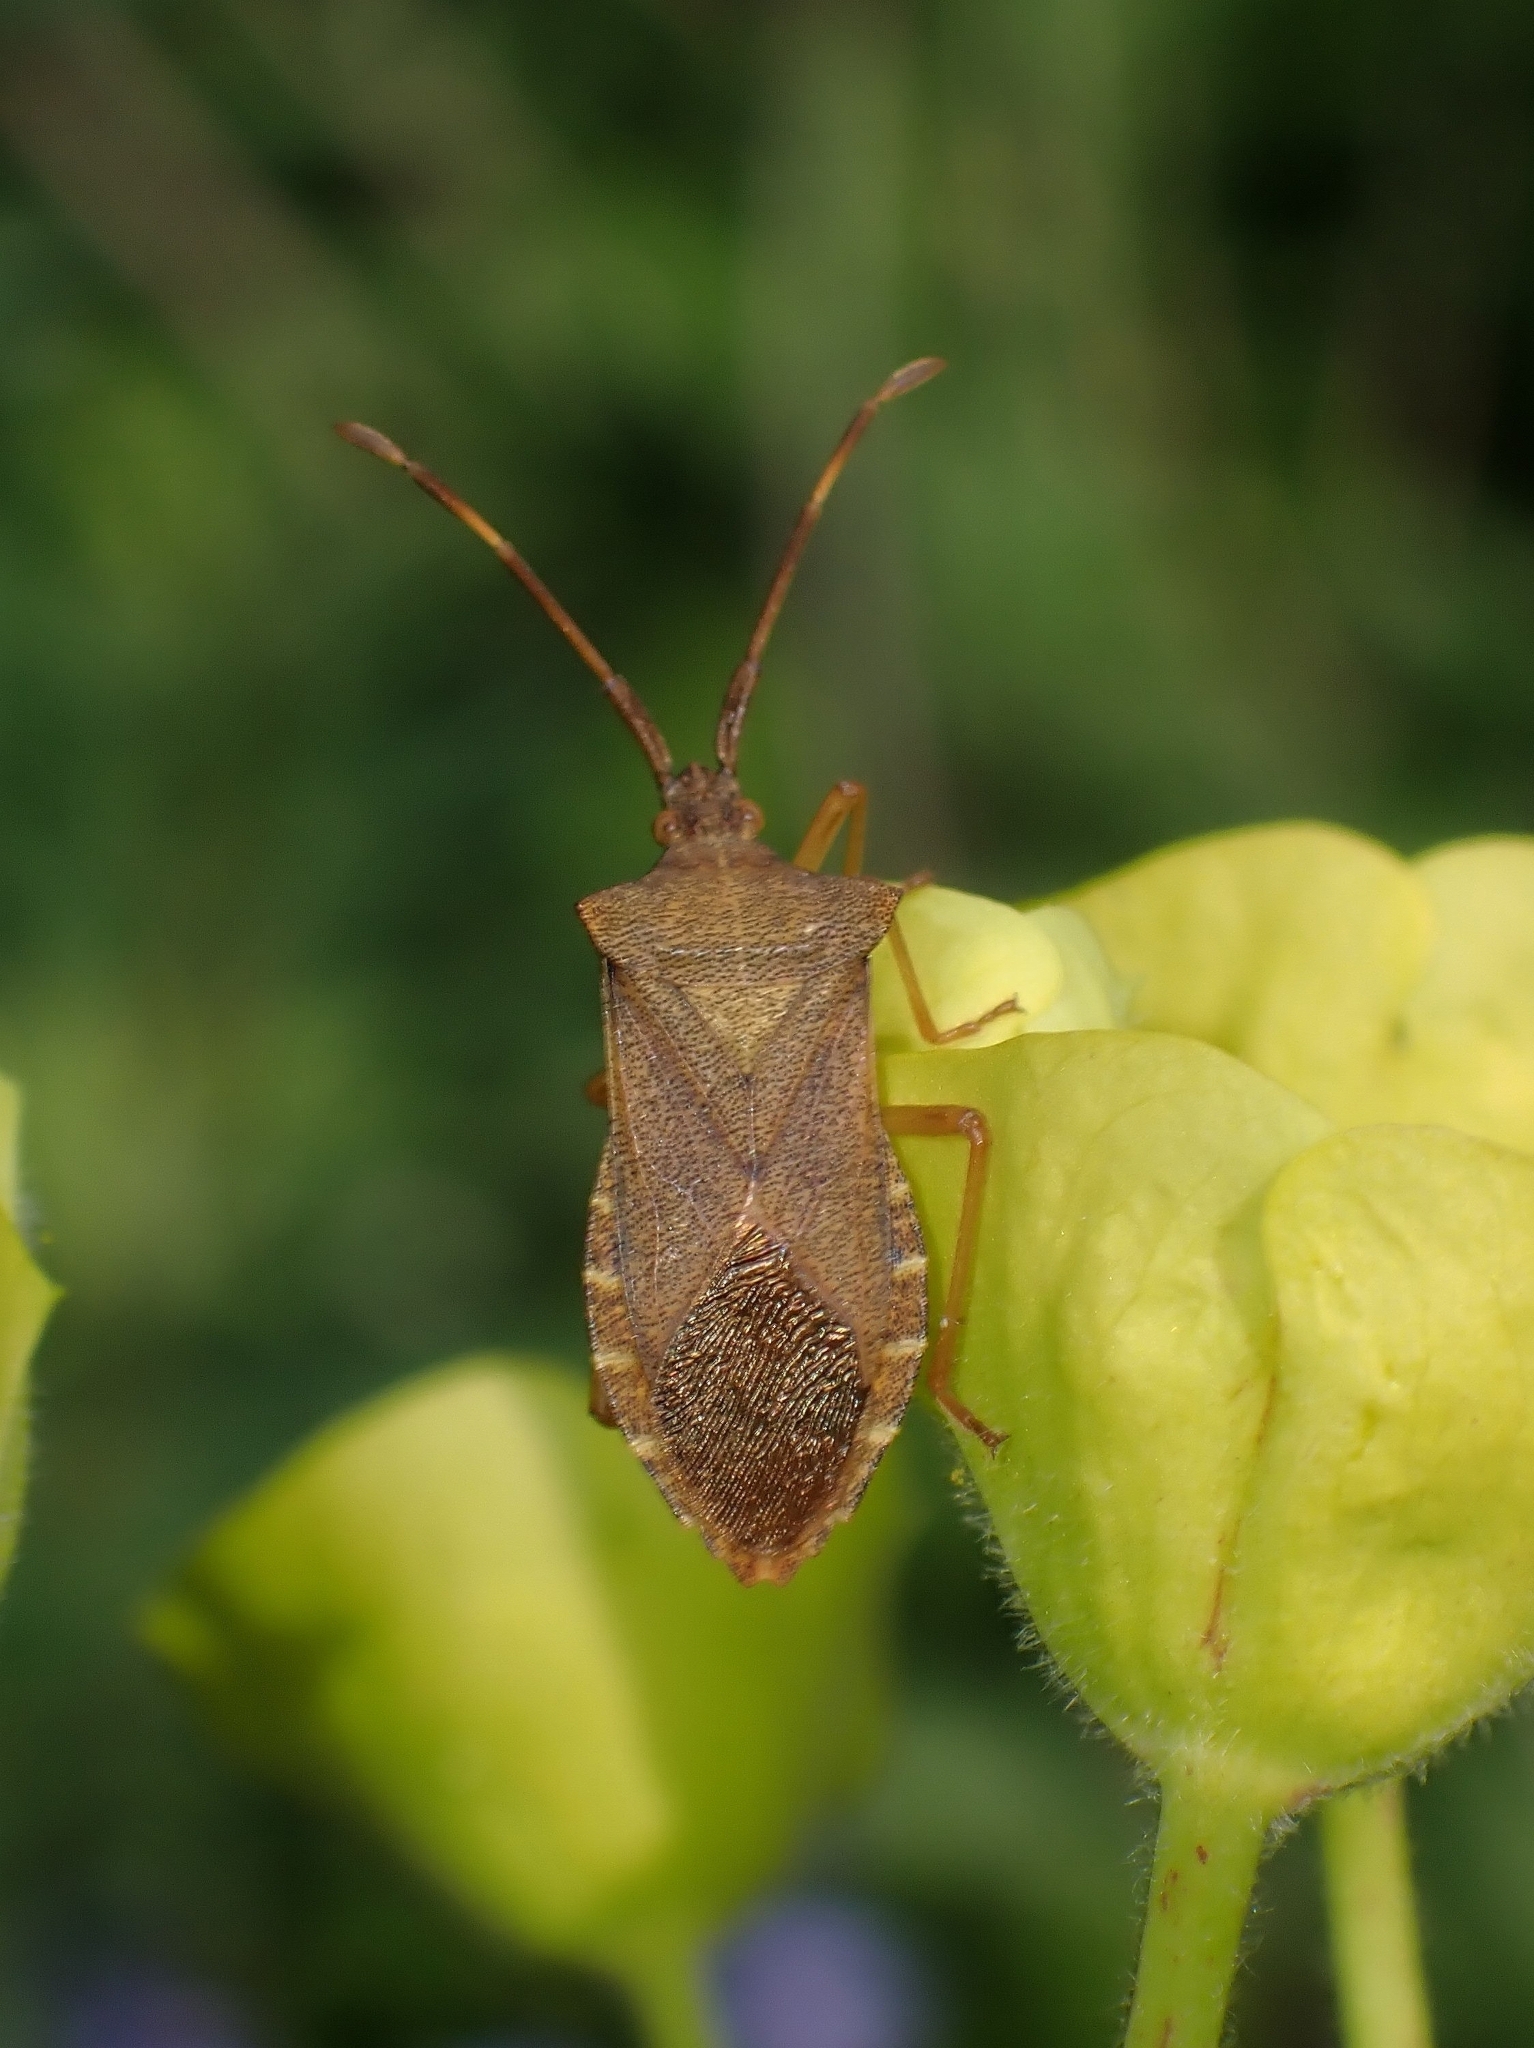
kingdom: Animalia
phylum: Arthropoda
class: Insecta
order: Hemiptera
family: Coreidae
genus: Gonocerus
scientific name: Gonocerus acuteangulatus
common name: Box bug
